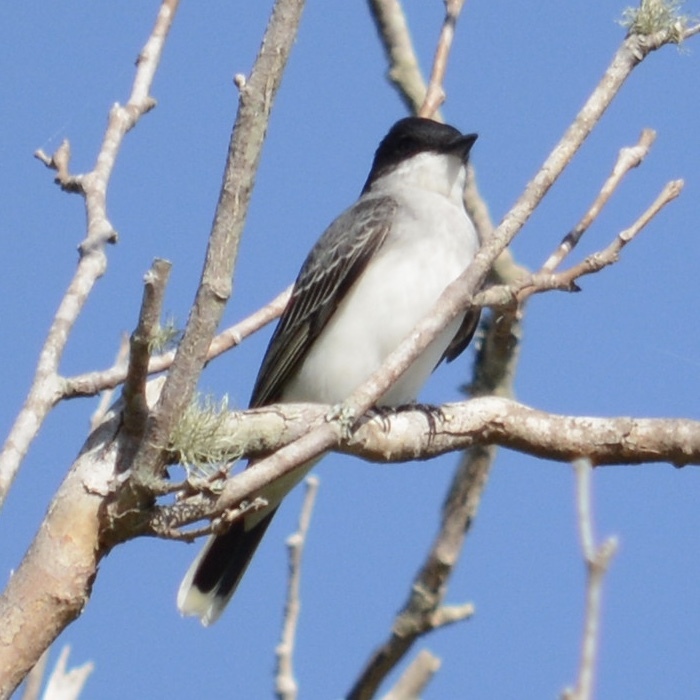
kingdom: Animalia
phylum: Chordata
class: Aves
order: Passeriformes
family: Tyrannidae
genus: Tyrannus
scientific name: Tyrannus tyrannus
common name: Eastern kingbird
